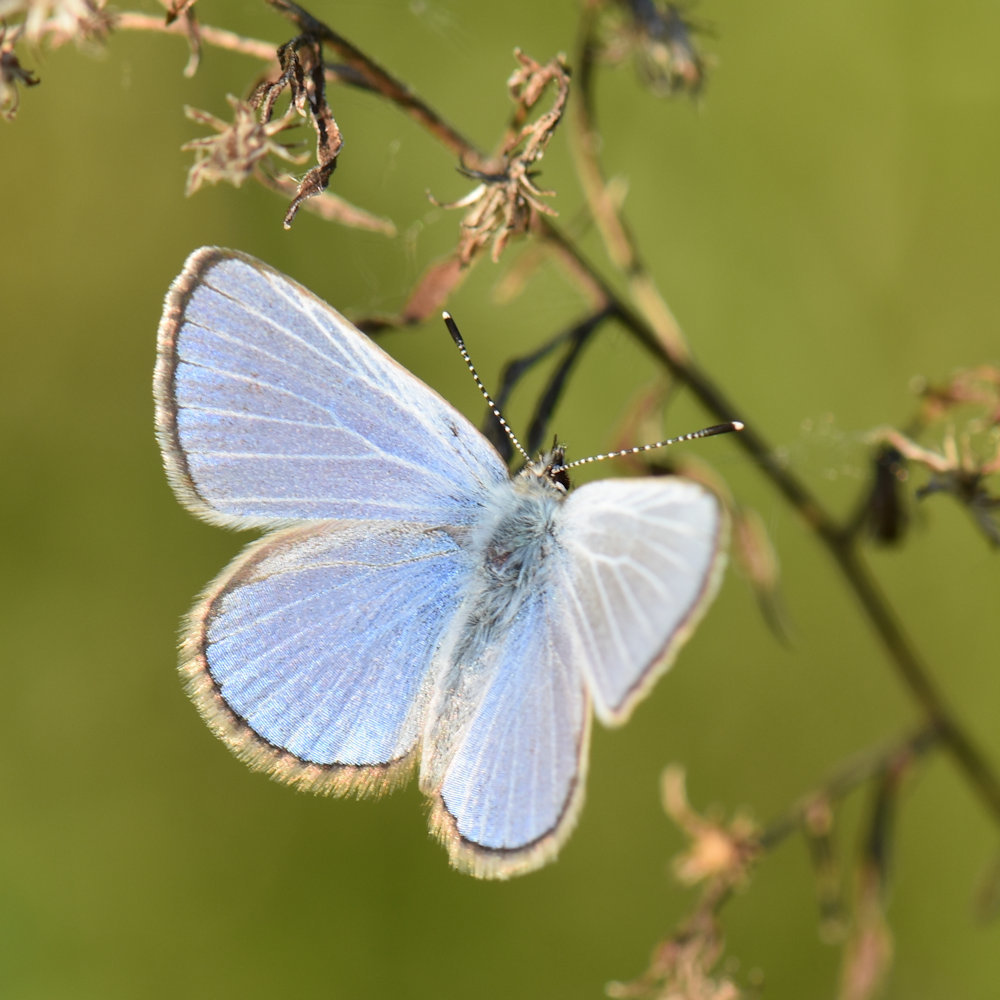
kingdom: Animalia
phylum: Arthropoda
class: Insecta
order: Lepidoptera
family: Lycaenidae
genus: Glaucopsyche
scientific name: Glaucopsyche lygdamus
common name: Silvery blue
